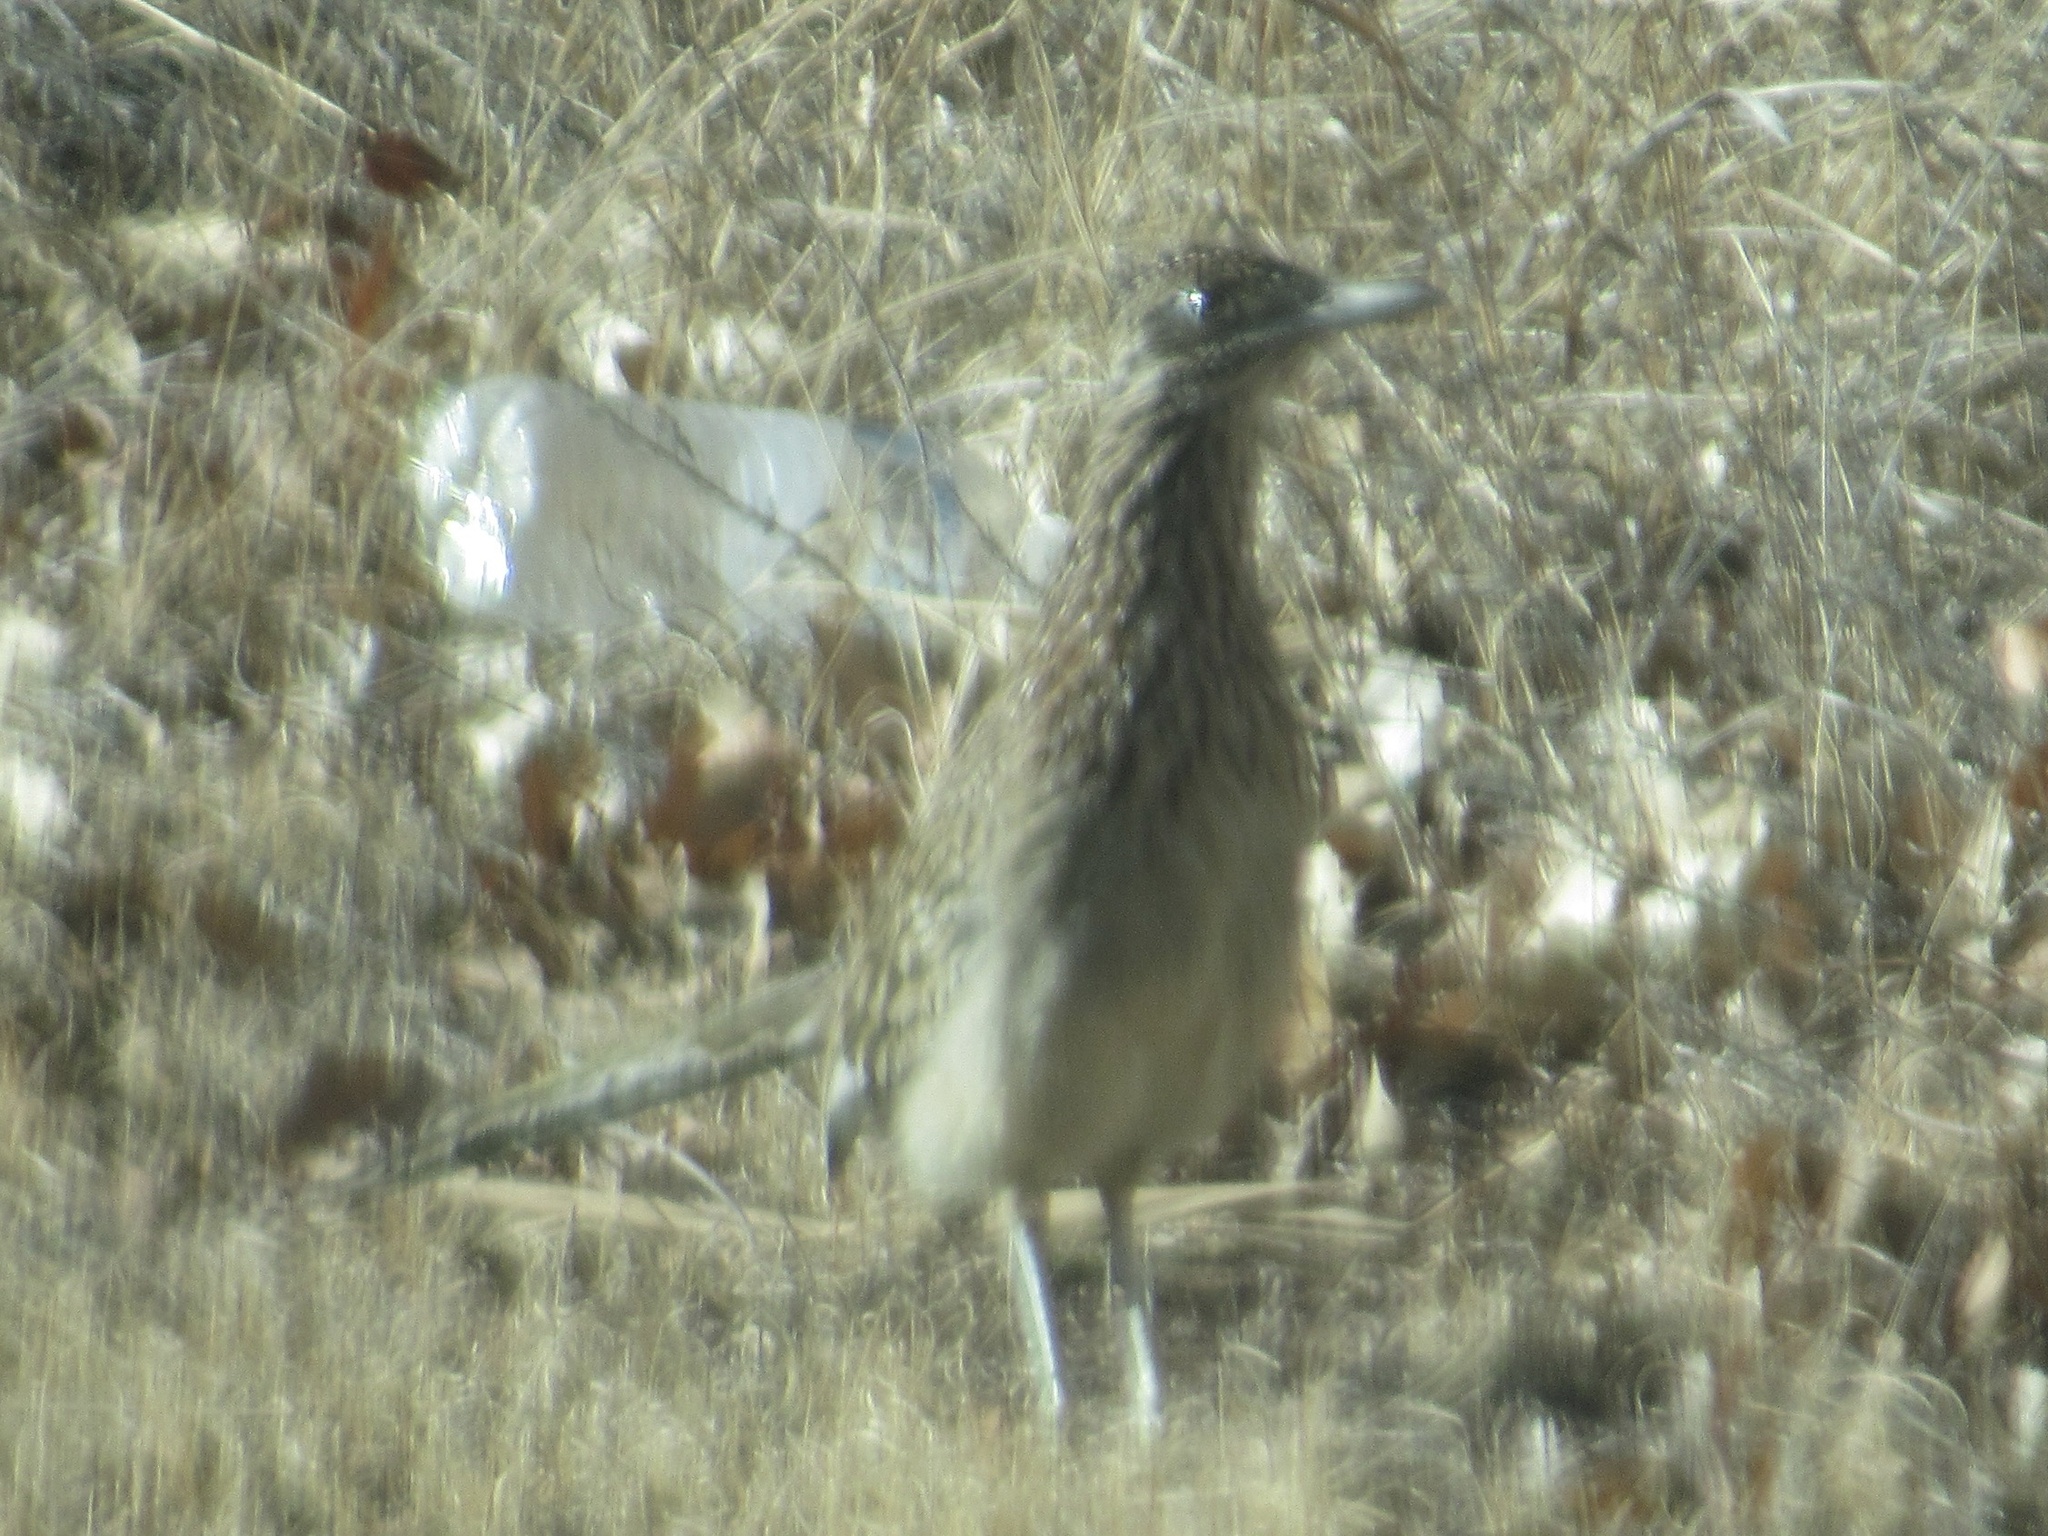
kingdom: Animalia
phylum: Chordata
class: Aves
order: Cuculiformes
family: Cuculidae
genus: Geococcyx
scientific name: Geococcyx californianus
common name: Greater roadrunner
